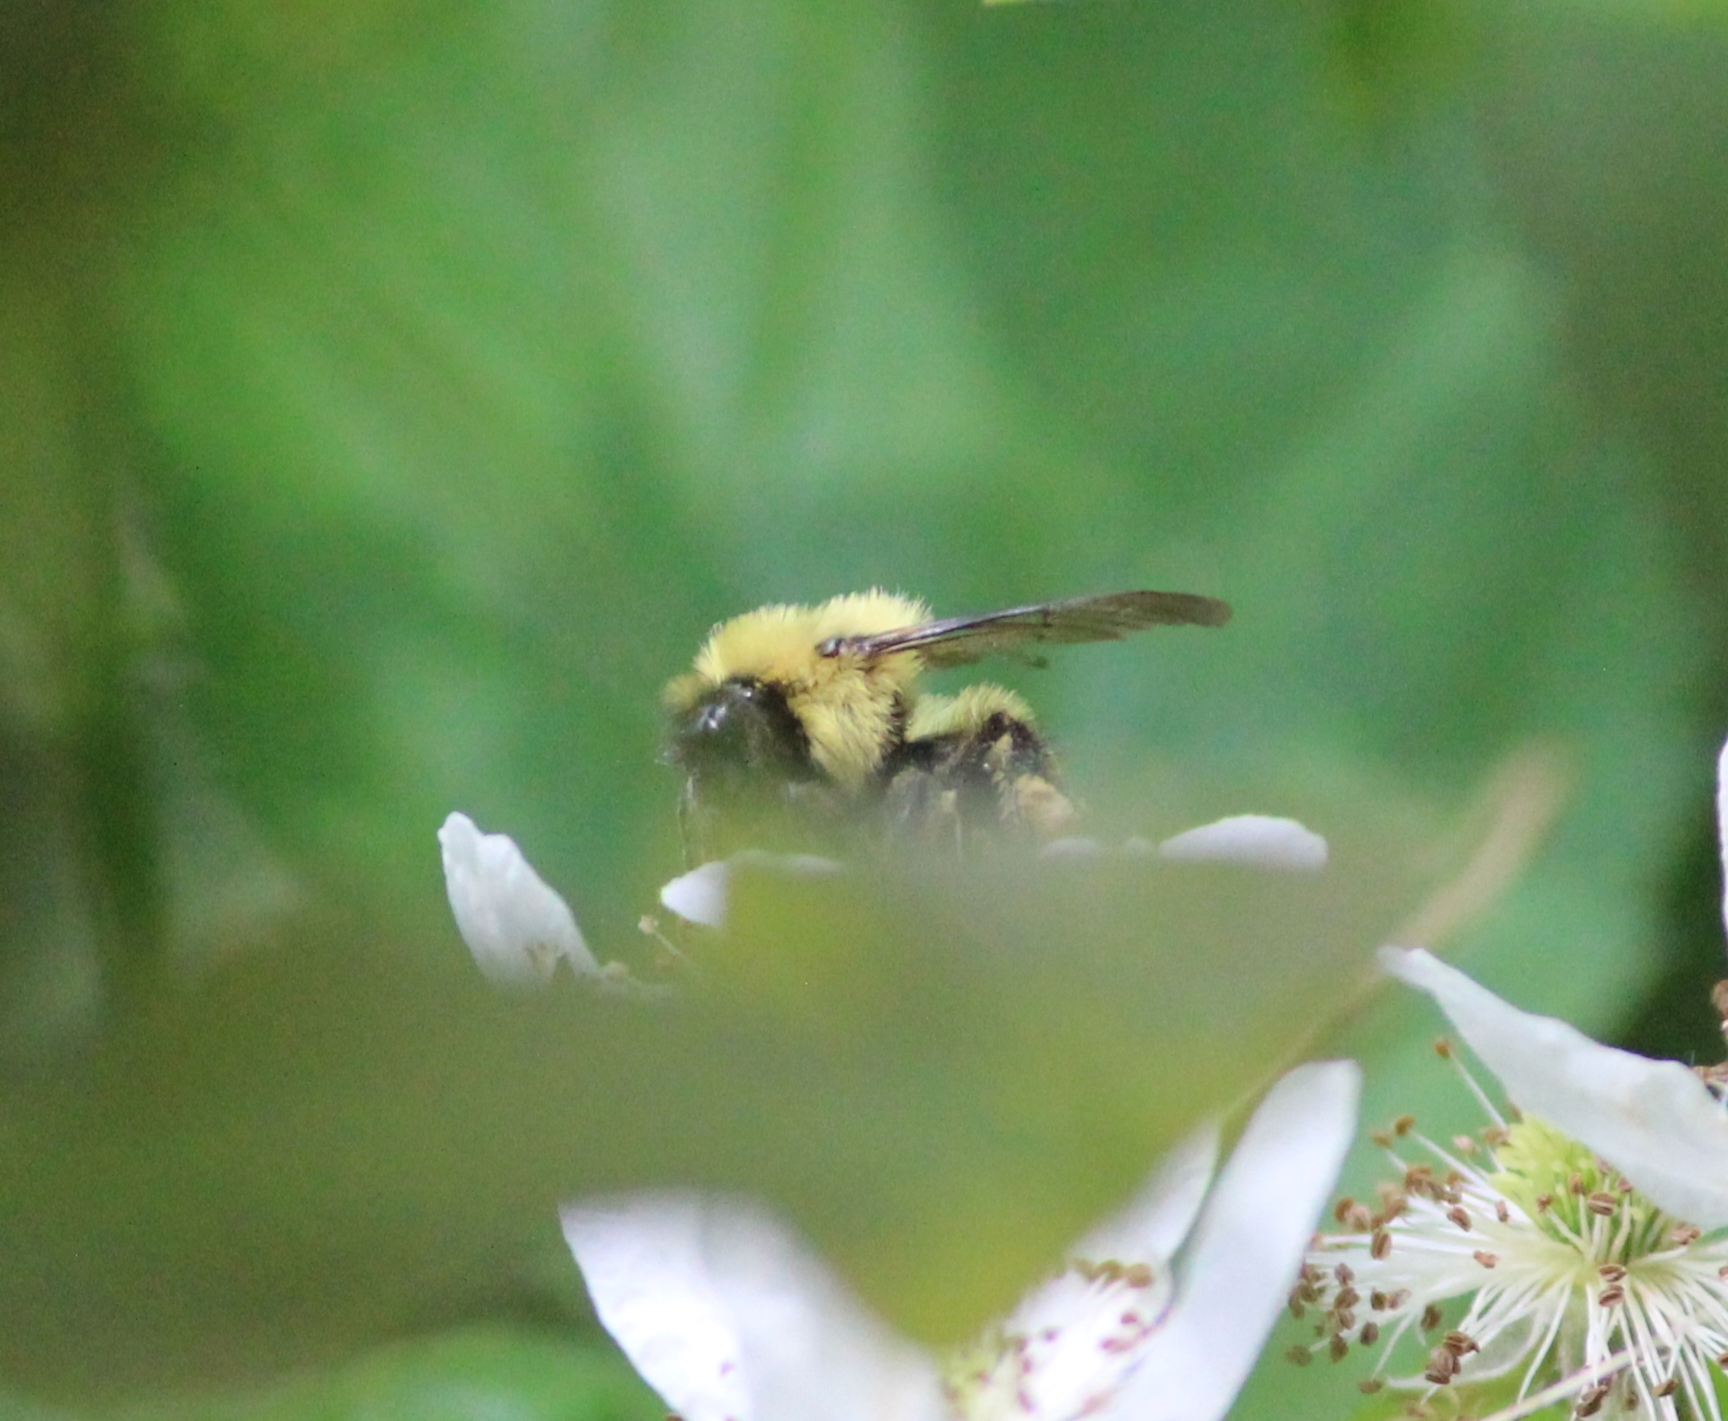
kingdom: Animalia
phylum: Arthropoda
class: Insecta
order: Hymenoptera
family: Apidae
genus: Bombus
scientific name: Bombus bimaculatus
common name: Two-spotted bumble bee
